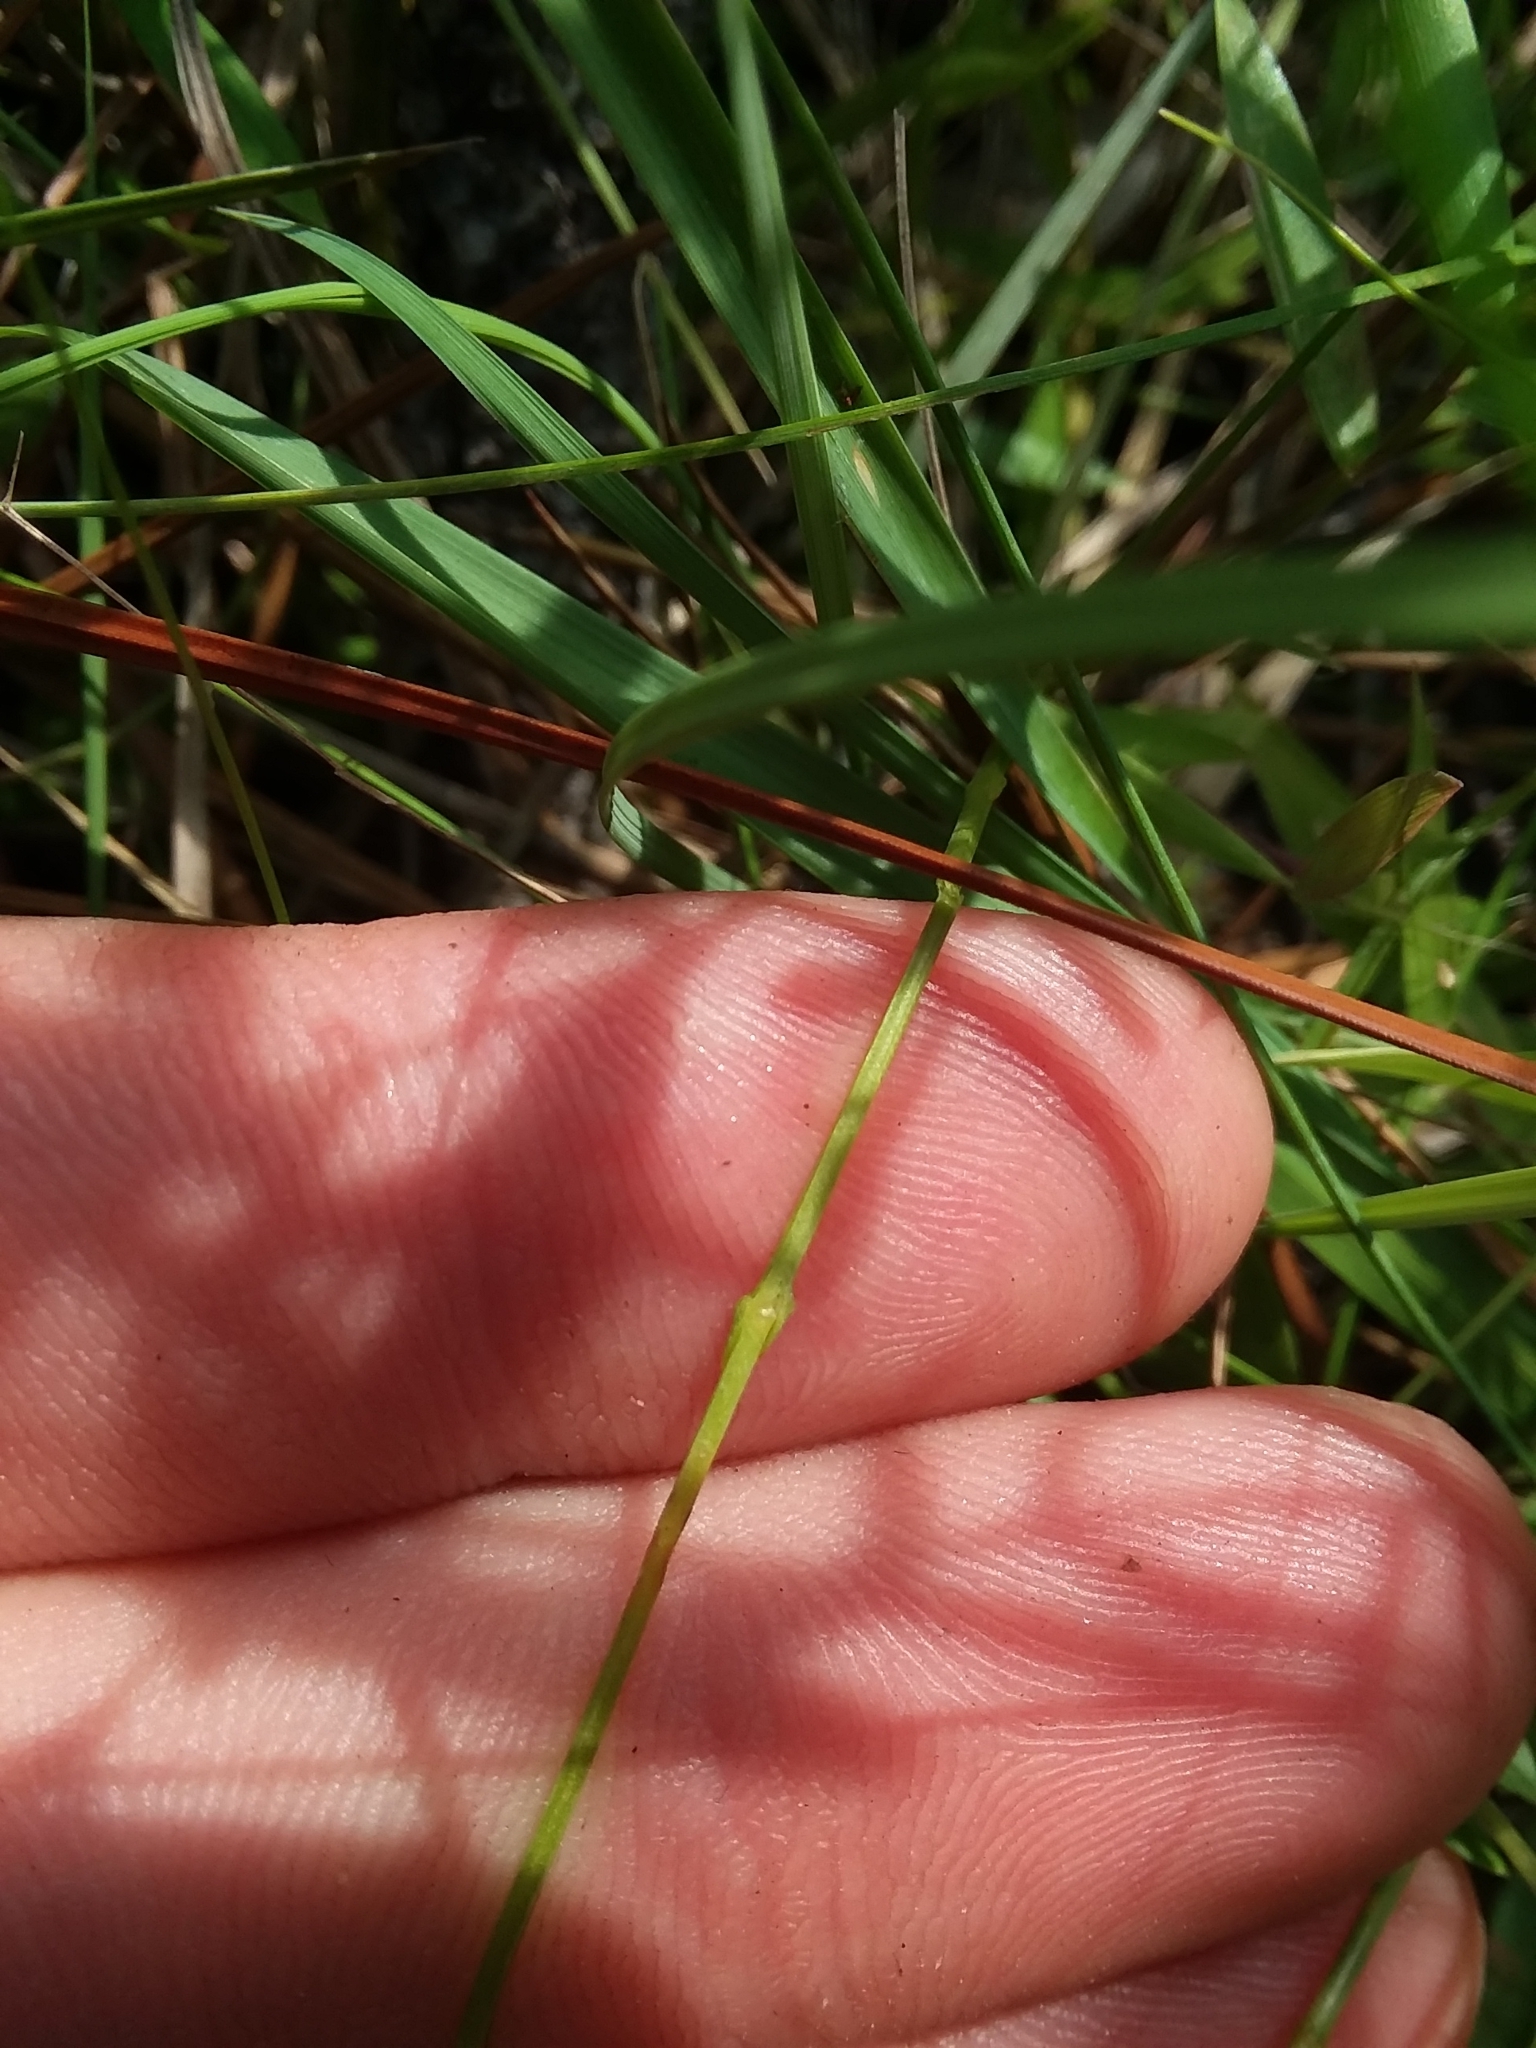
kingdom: Plantae
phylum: Tracheophyta
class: Magnoliopsida
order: Gentianales
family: Gentianaceae
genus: Bartonia
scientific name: Bartonia virginica
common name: Yellow bartonia
